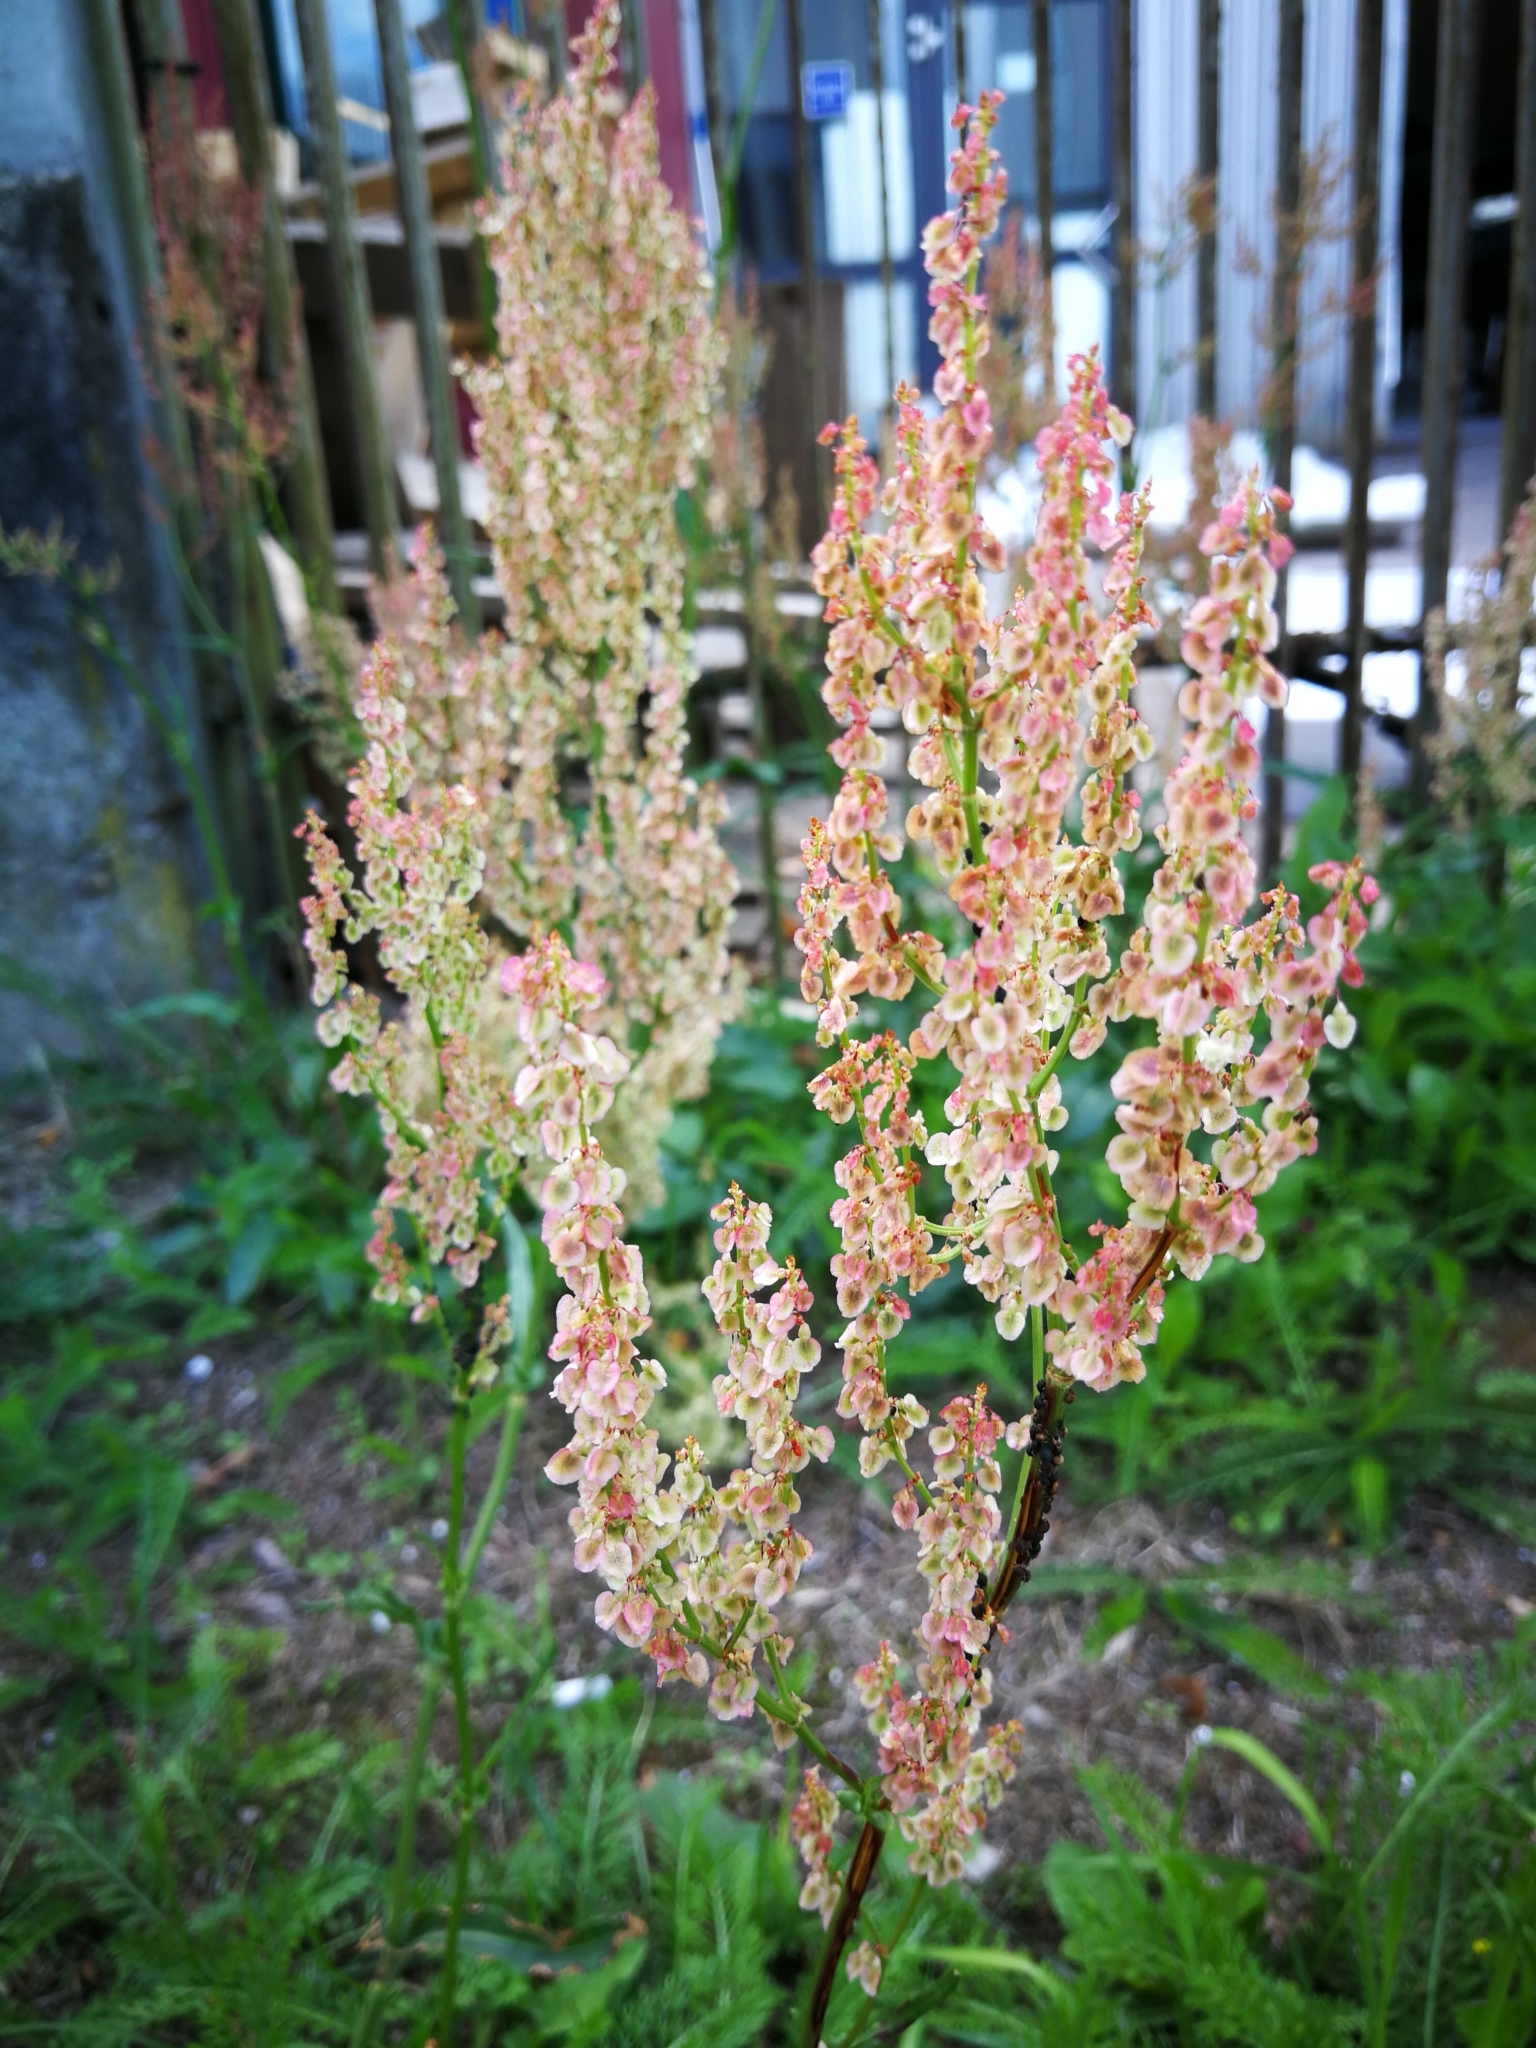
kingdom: Plantae
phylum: Tracheophyta
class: Magnoliopsida
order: Caryophyllales
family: Polygonaceae
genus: Rumex
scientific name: Rumex
